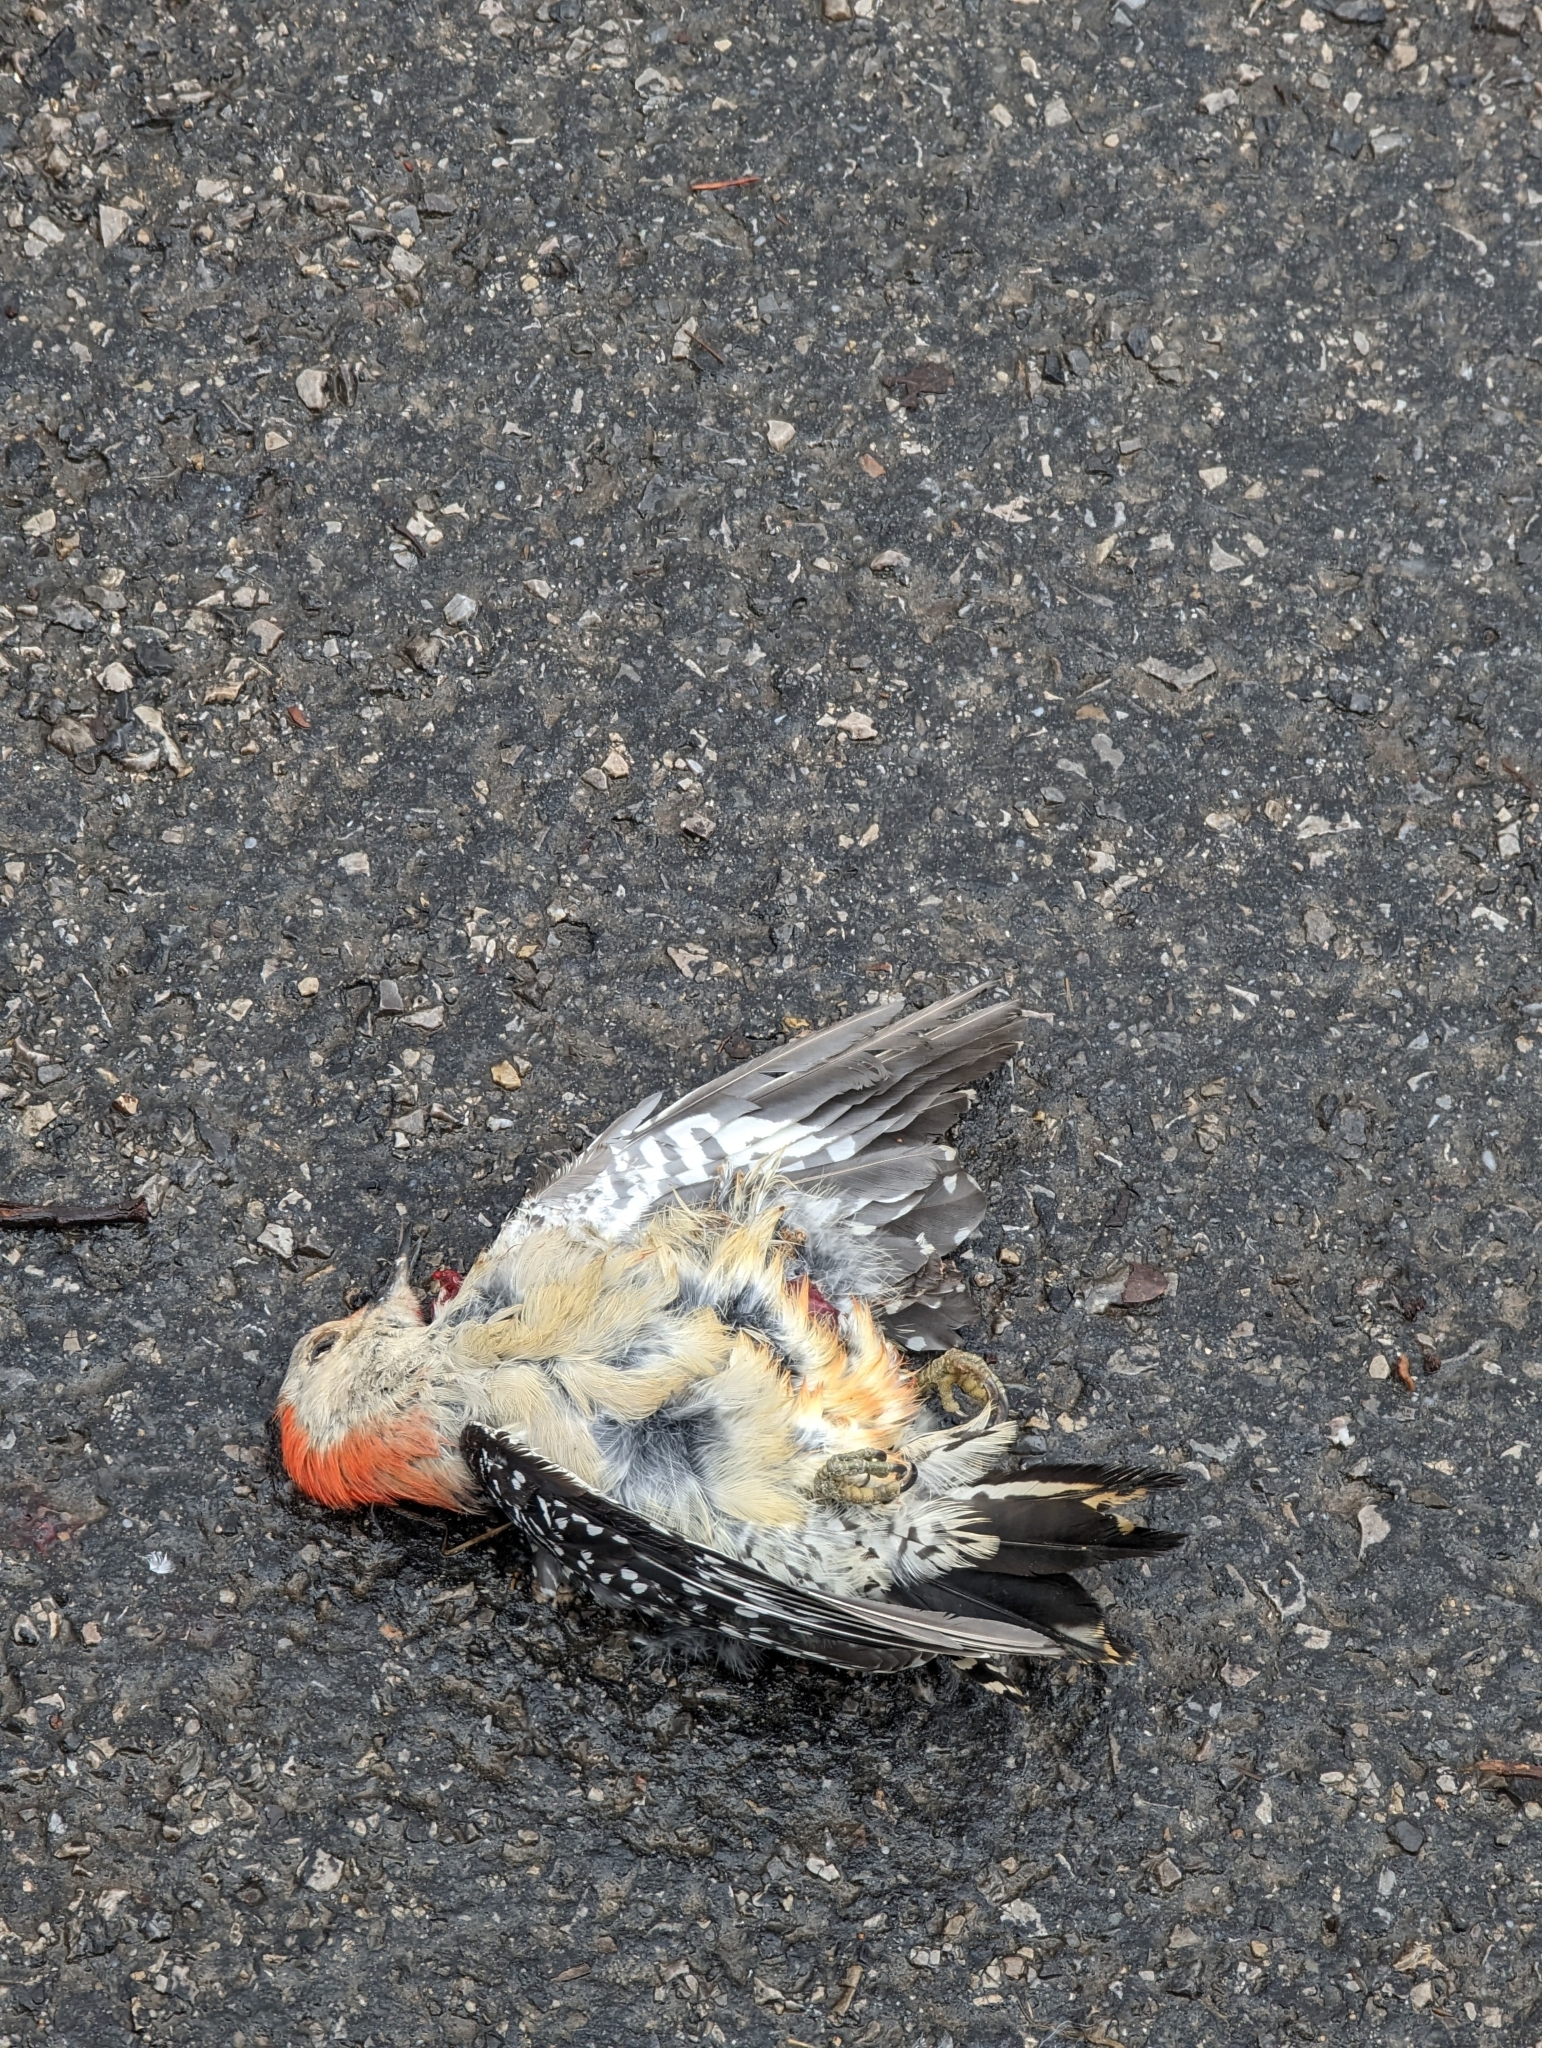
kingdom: Animalia
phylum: Chordata
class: Aves
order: Piciformes
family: Picidae
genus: Melanerpes
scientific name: Melanerpes carolinus
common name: Red-bellied woodpecker
